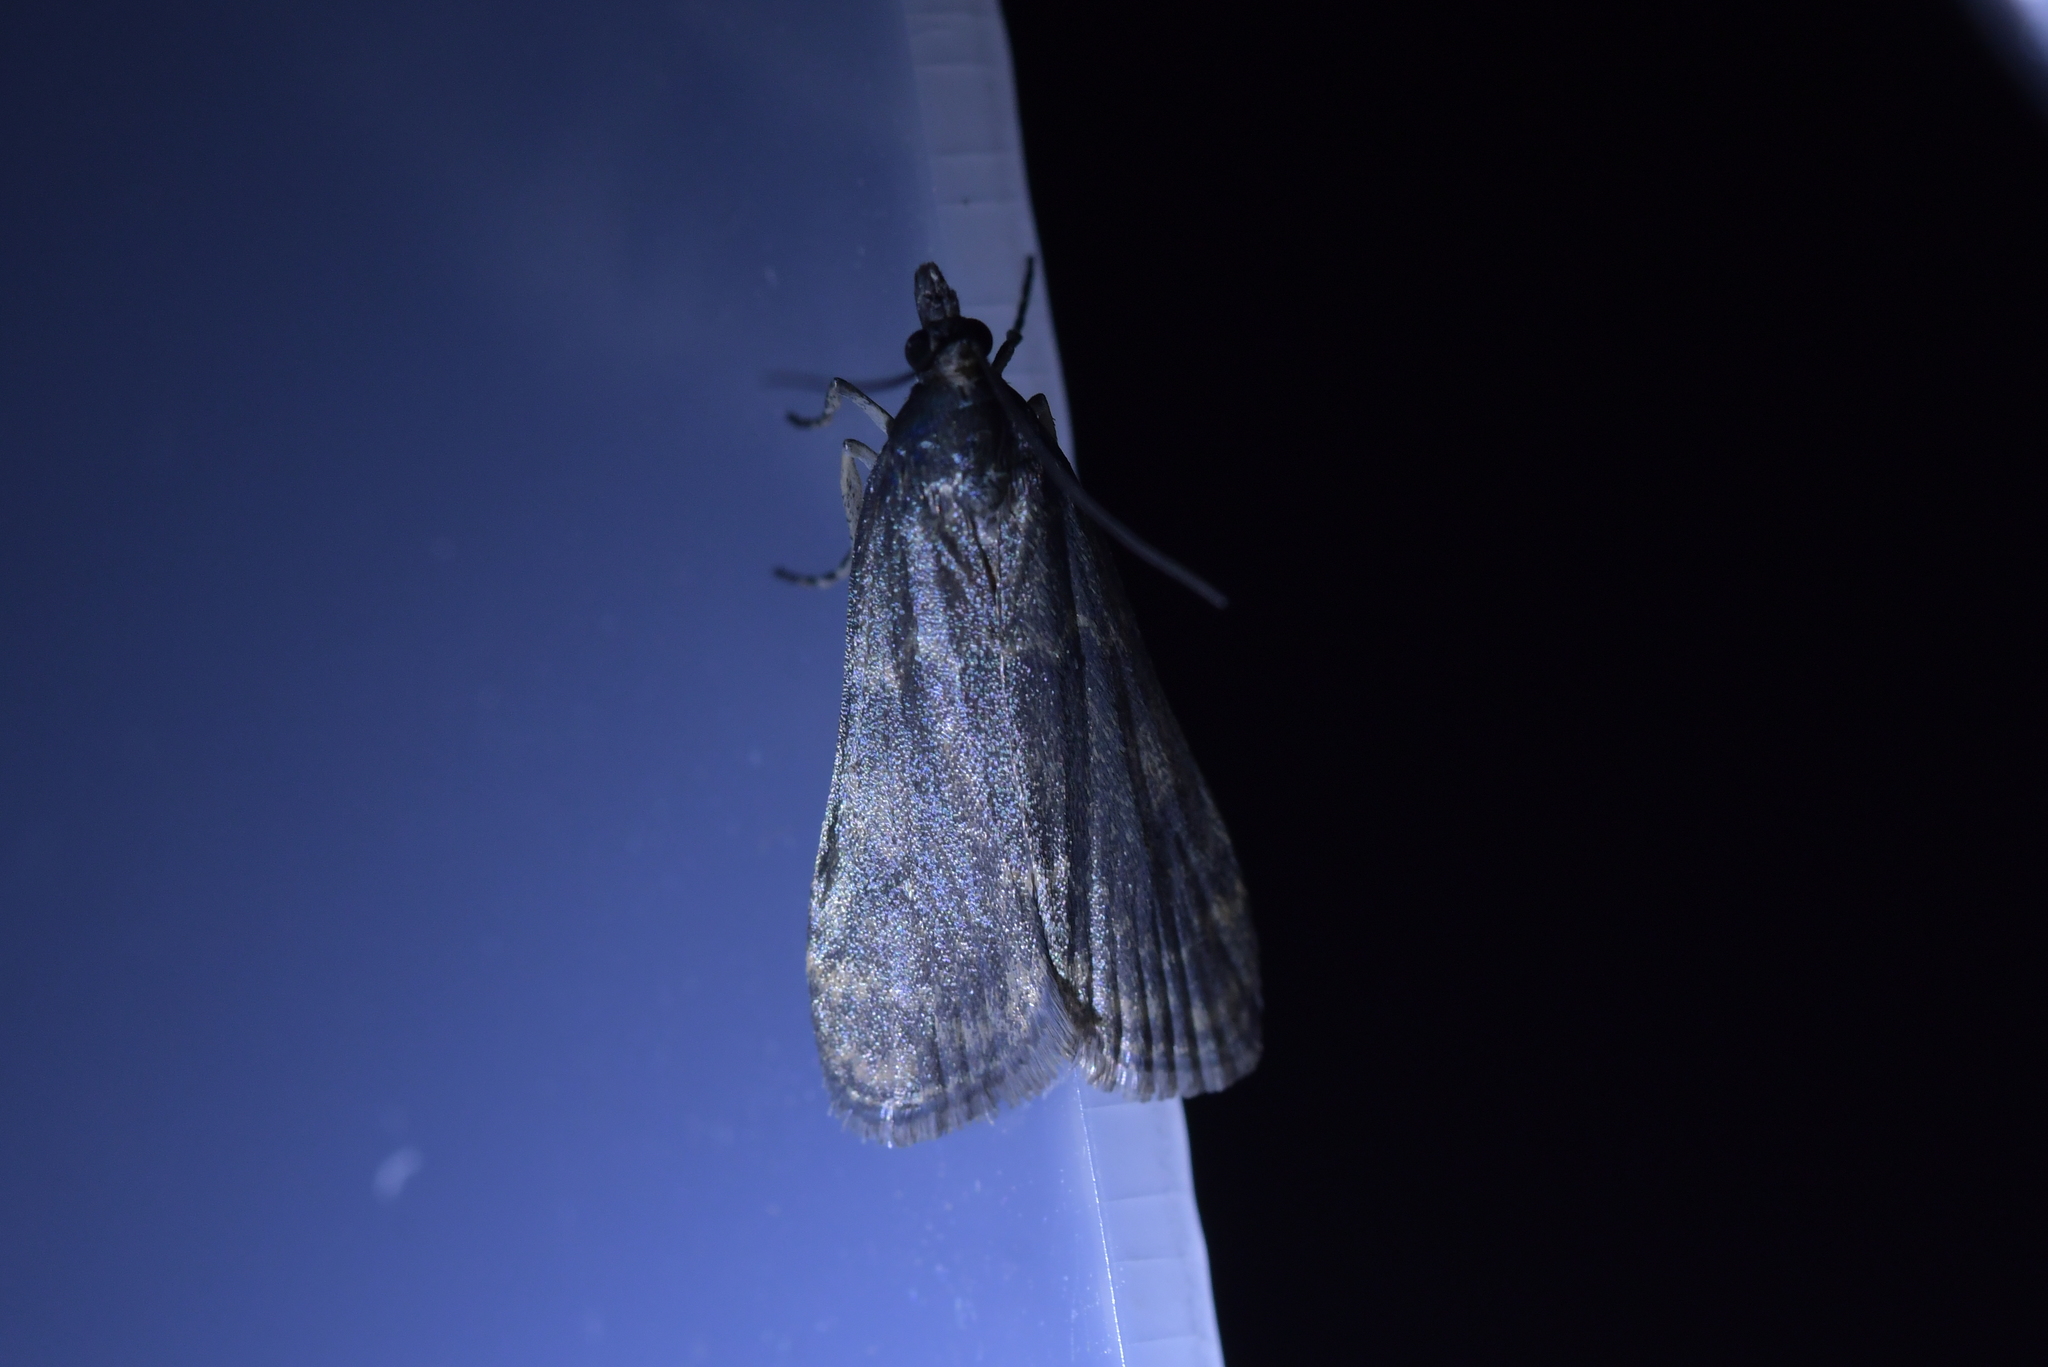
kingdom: Animalia
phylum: Arthropoda
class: Insecta
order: Lepidoptera
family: Crambidae
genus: Eudonia
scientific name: Eudonia cataxesta
